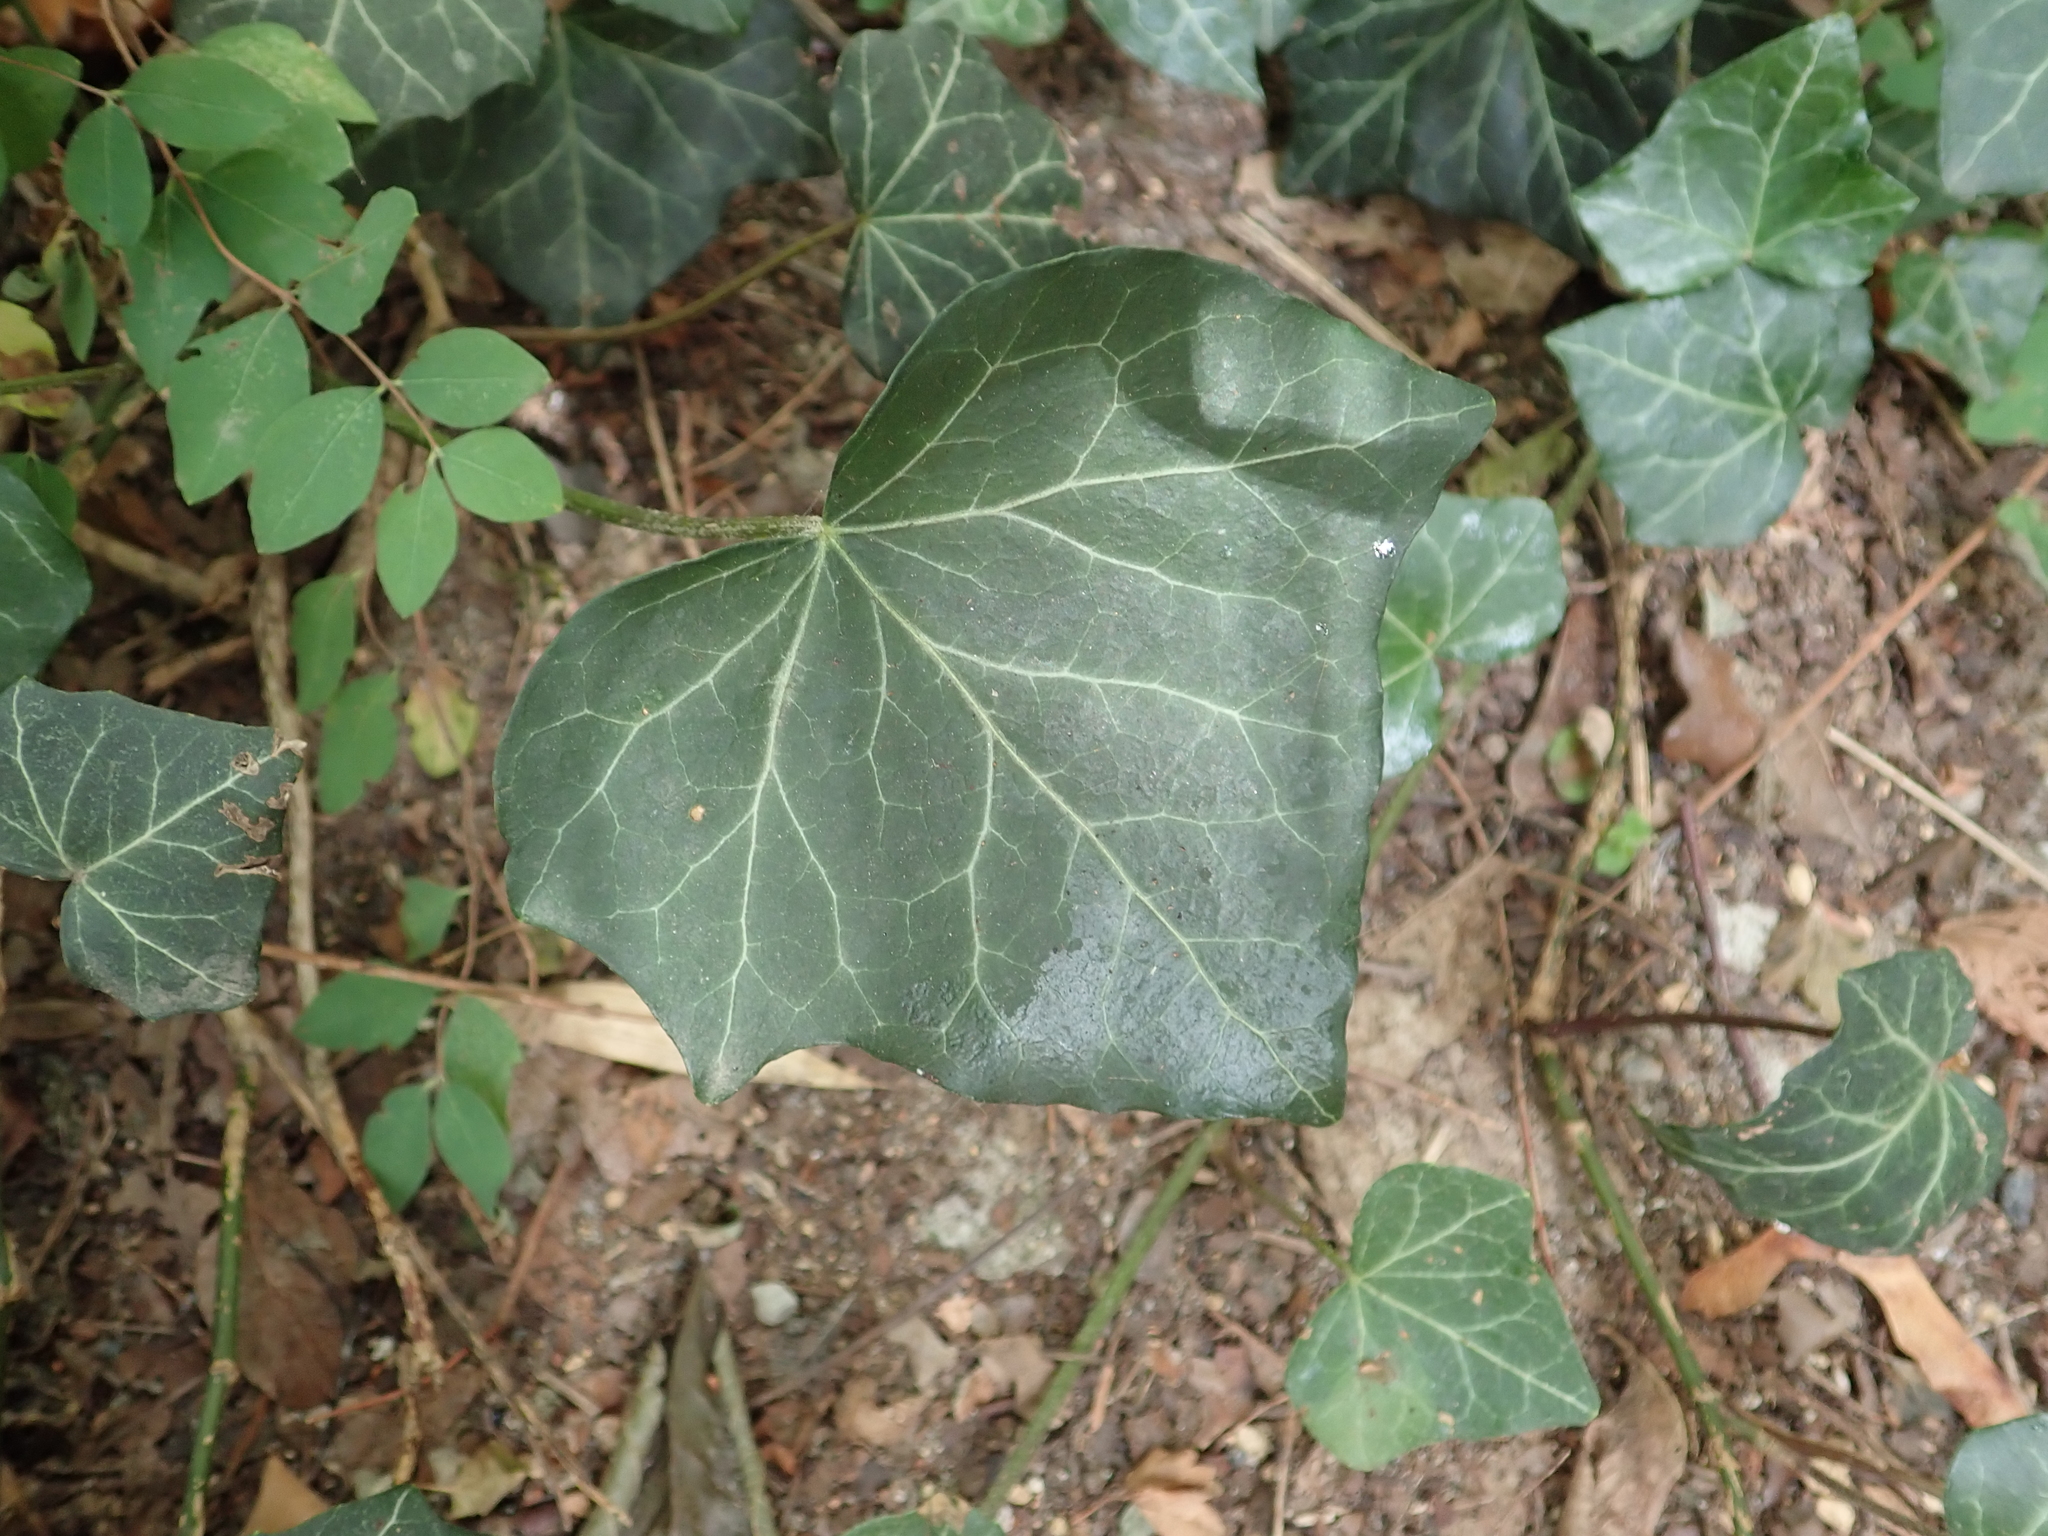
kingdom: Plantae
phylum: Tracheophyta
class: Magnoliopsida
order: Apiales
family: Araliaceae
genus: Hedera
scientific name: Hedera helix
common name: Ivy
